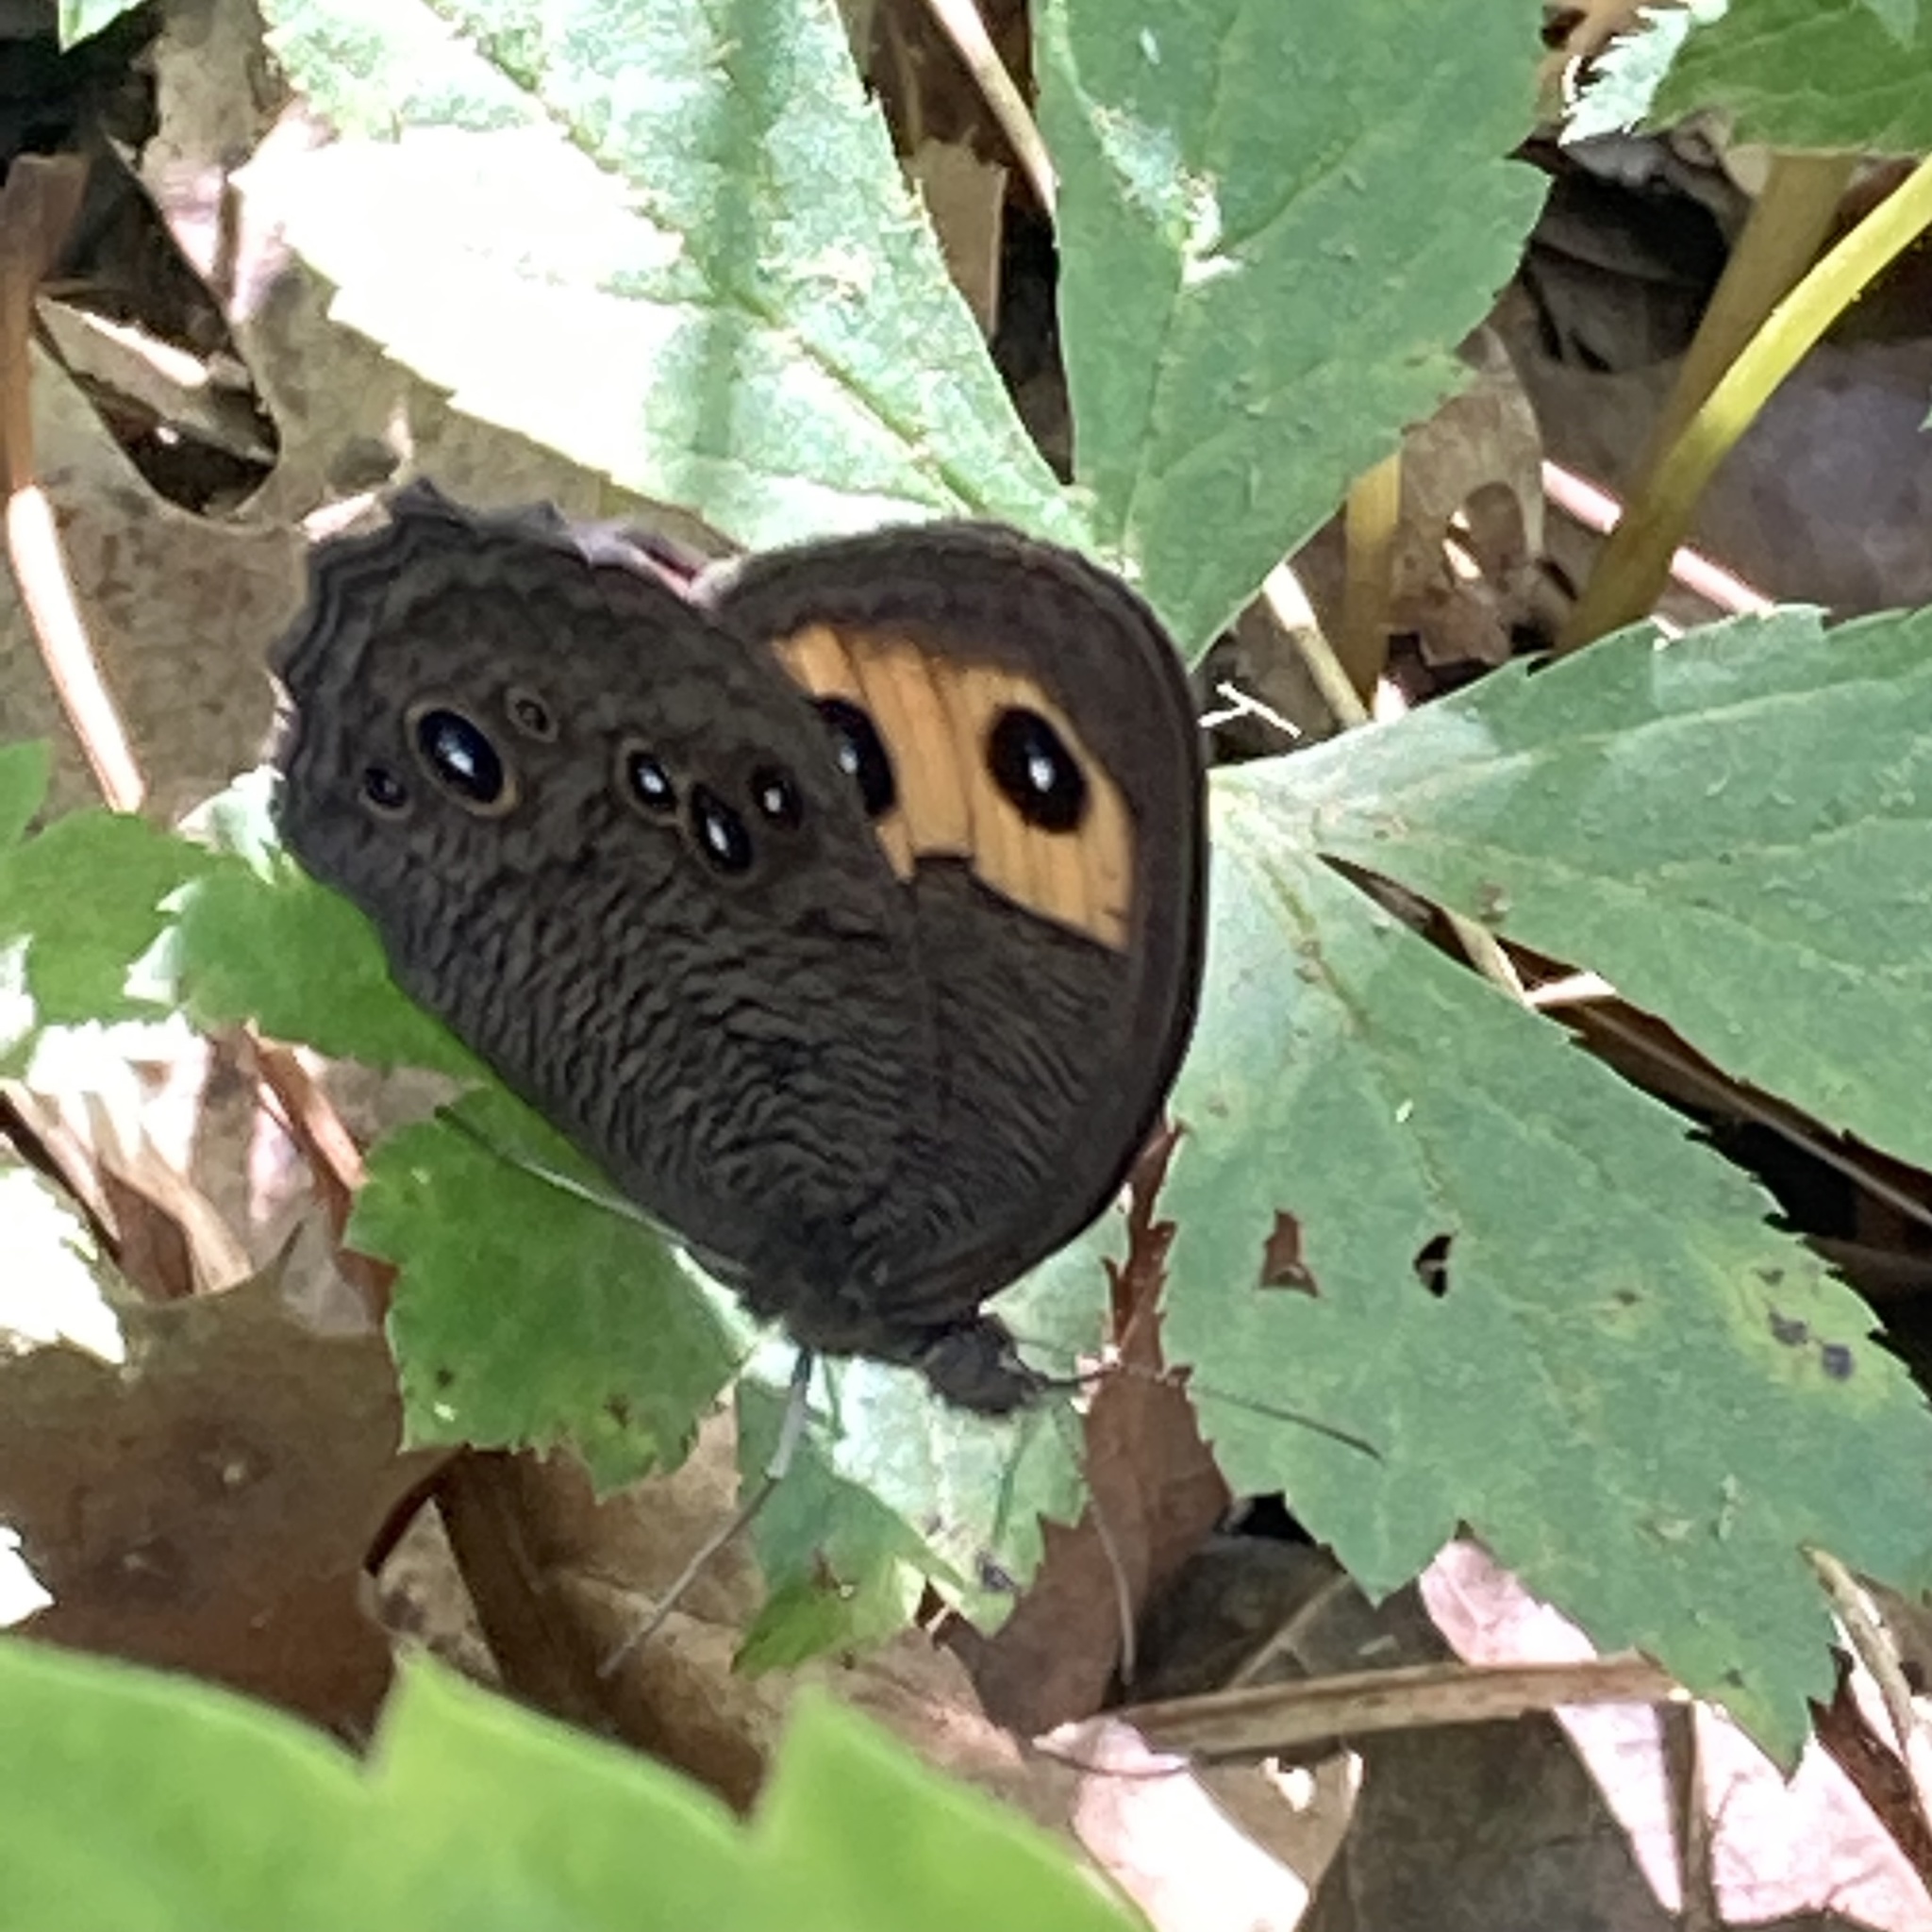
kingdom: Animalia
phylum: Arthropoda
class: Insecta
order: Lepidoptera
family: Nymphalidae
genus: Cercyonis
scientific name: Cercyonis pegala
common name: Common wood-nymph
